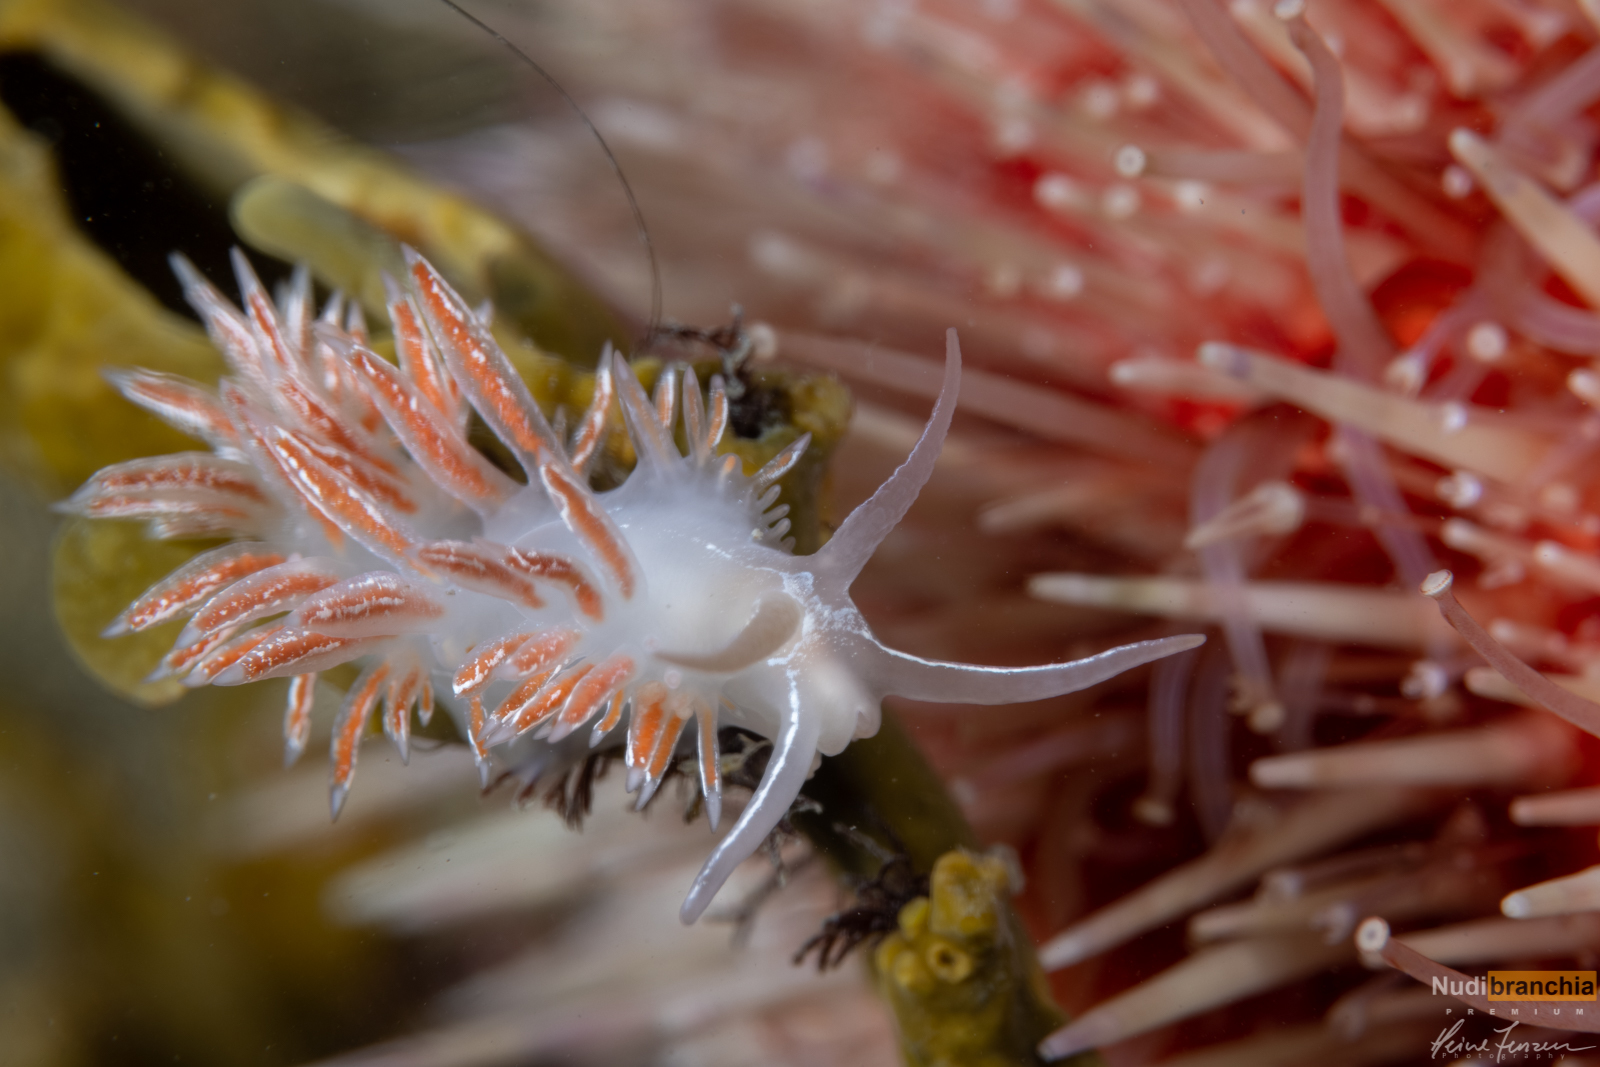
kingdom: Animalia
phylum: Mollusca
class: Gastropoda
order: Nudibranchia
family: Coryphellidae
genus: Coryphella
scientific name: Coryphella chriskaugei
